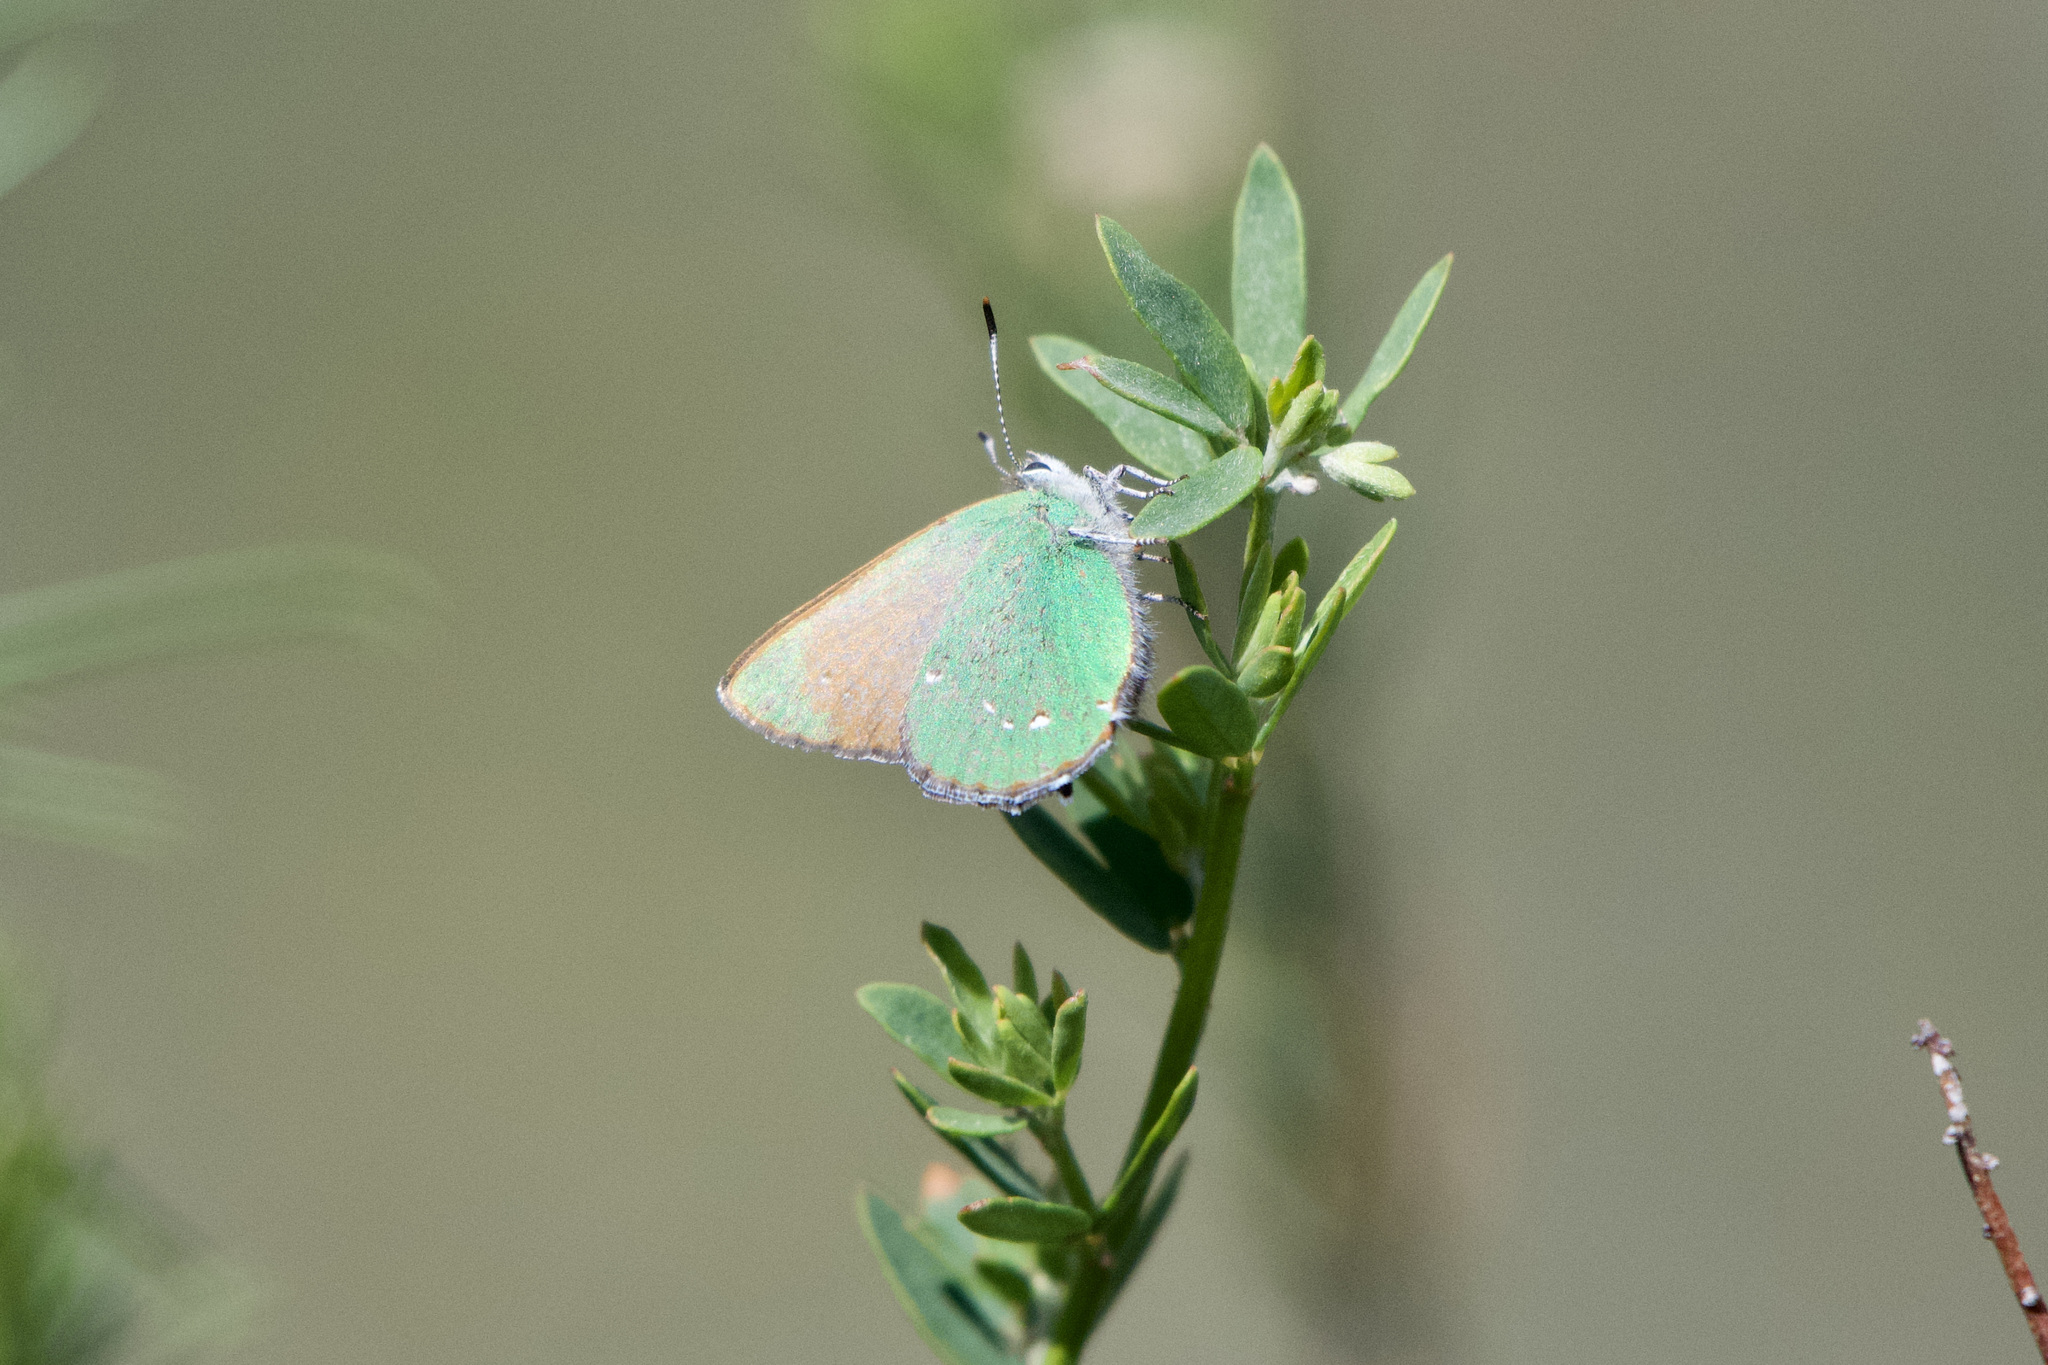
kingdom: Animalia
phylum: Arthropoda
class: Insecta
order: Lepidoptera
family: Lycaenidae
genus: Callophrys
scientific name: Callophrys dumetorum
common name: Bramble hairstreak
